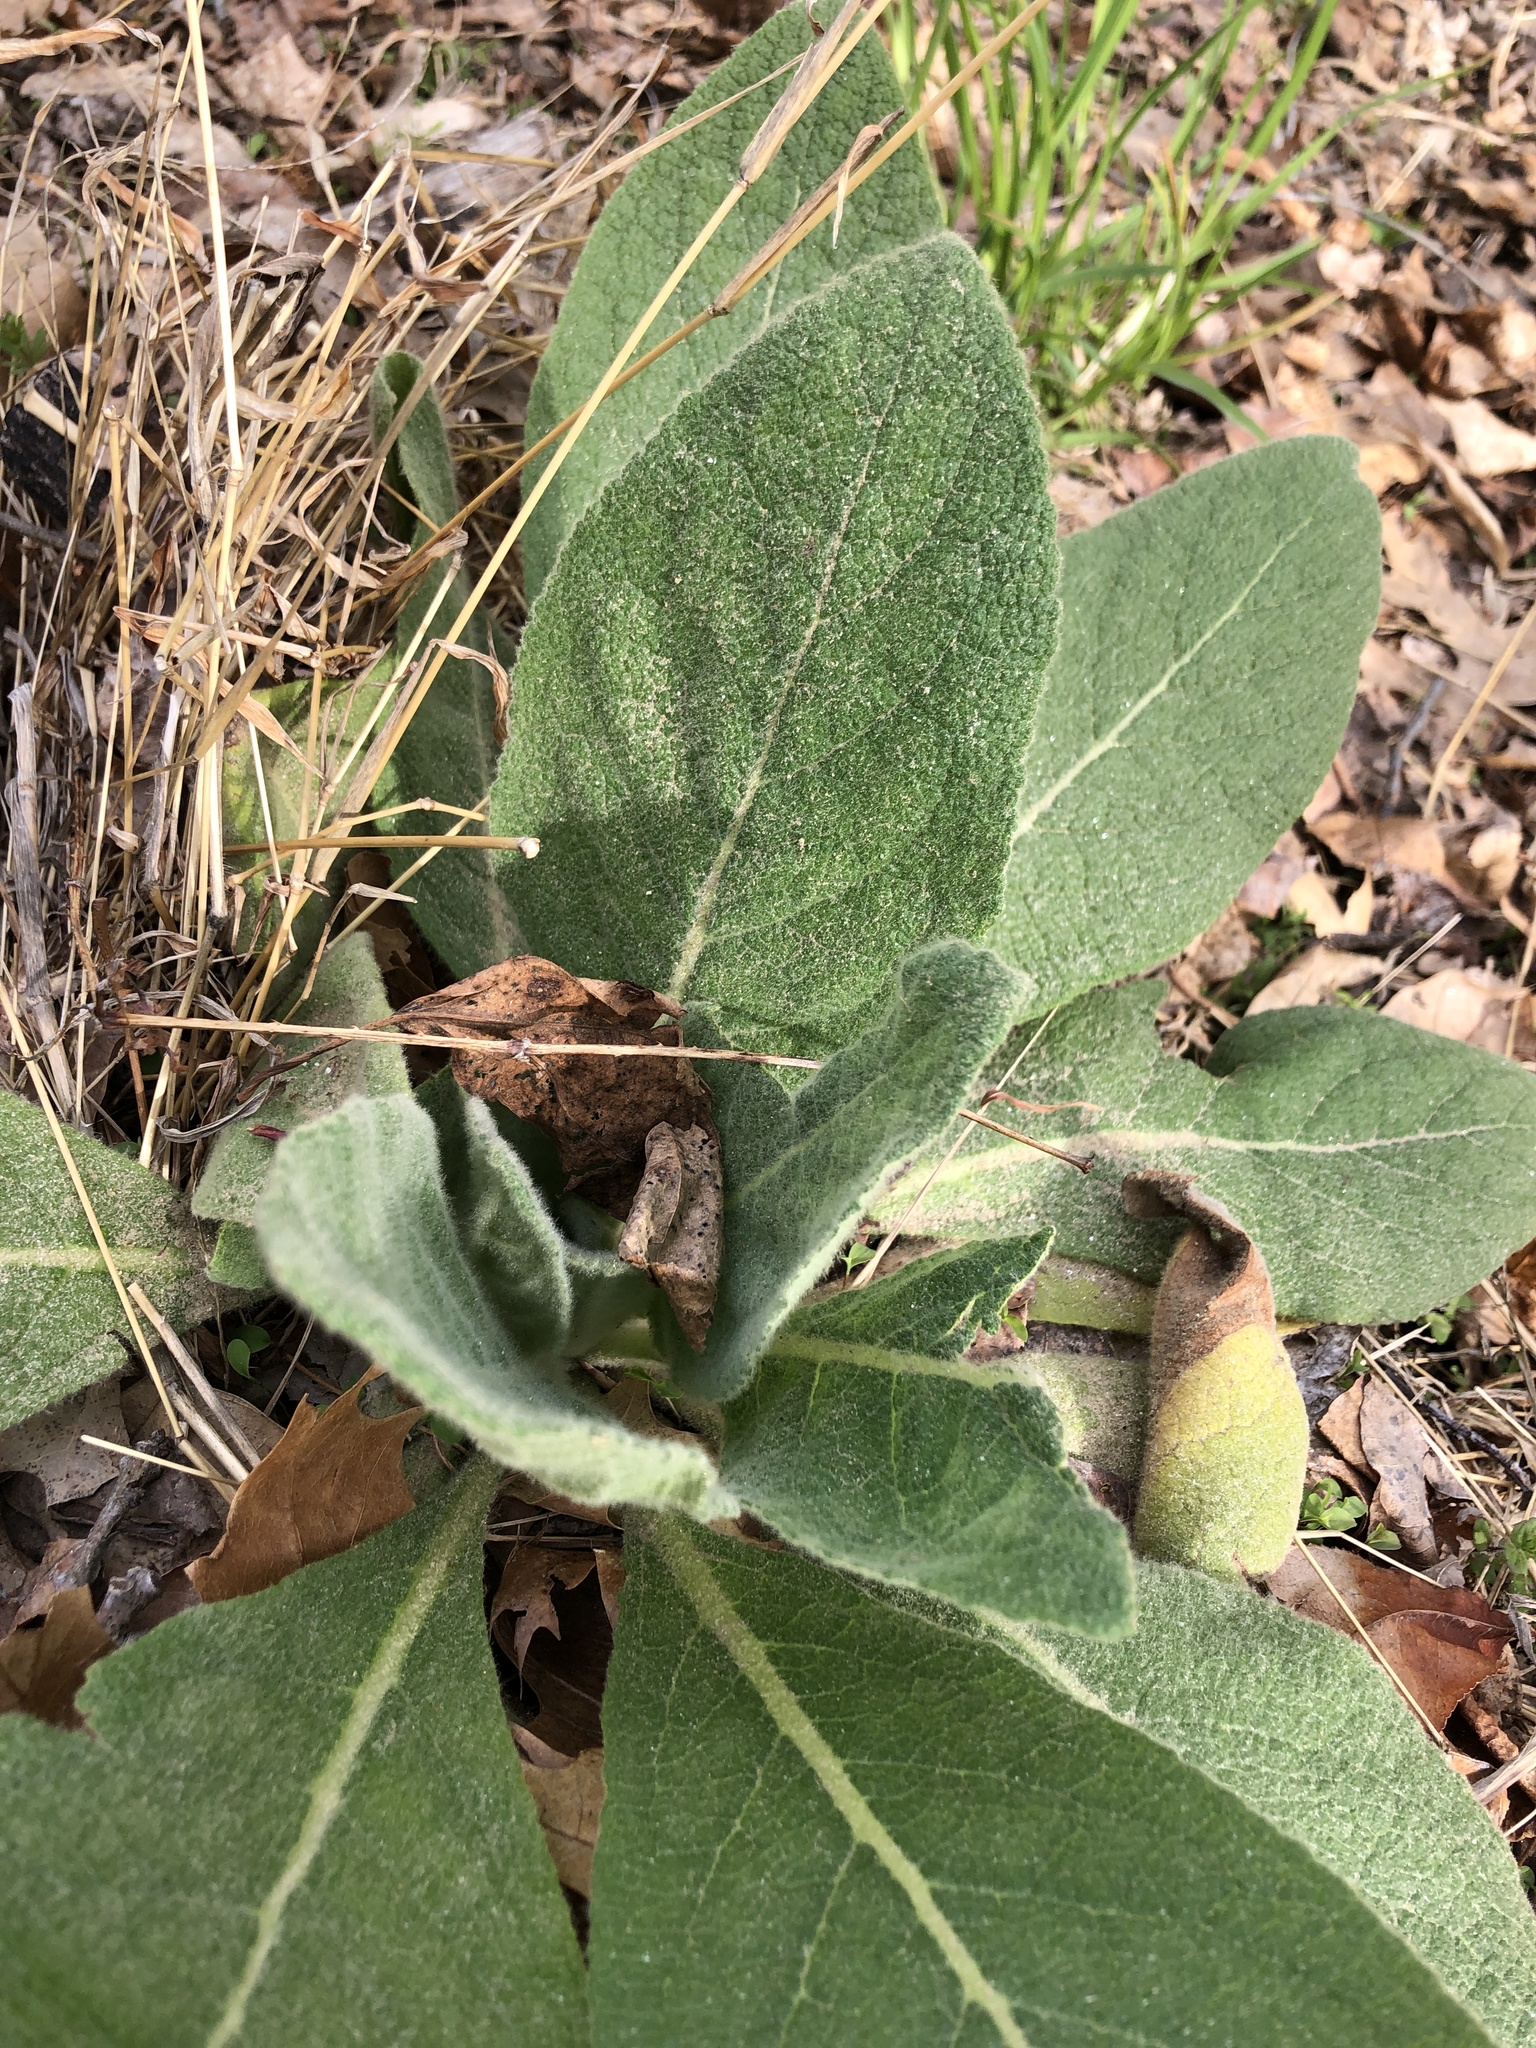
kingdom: Plantae
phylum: Tracheophyta
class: Magnoliopsida
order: Lamiales
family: Scrophulariaceae
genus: Verbascum
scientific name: Verbascum thapsus
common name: Common mullein
